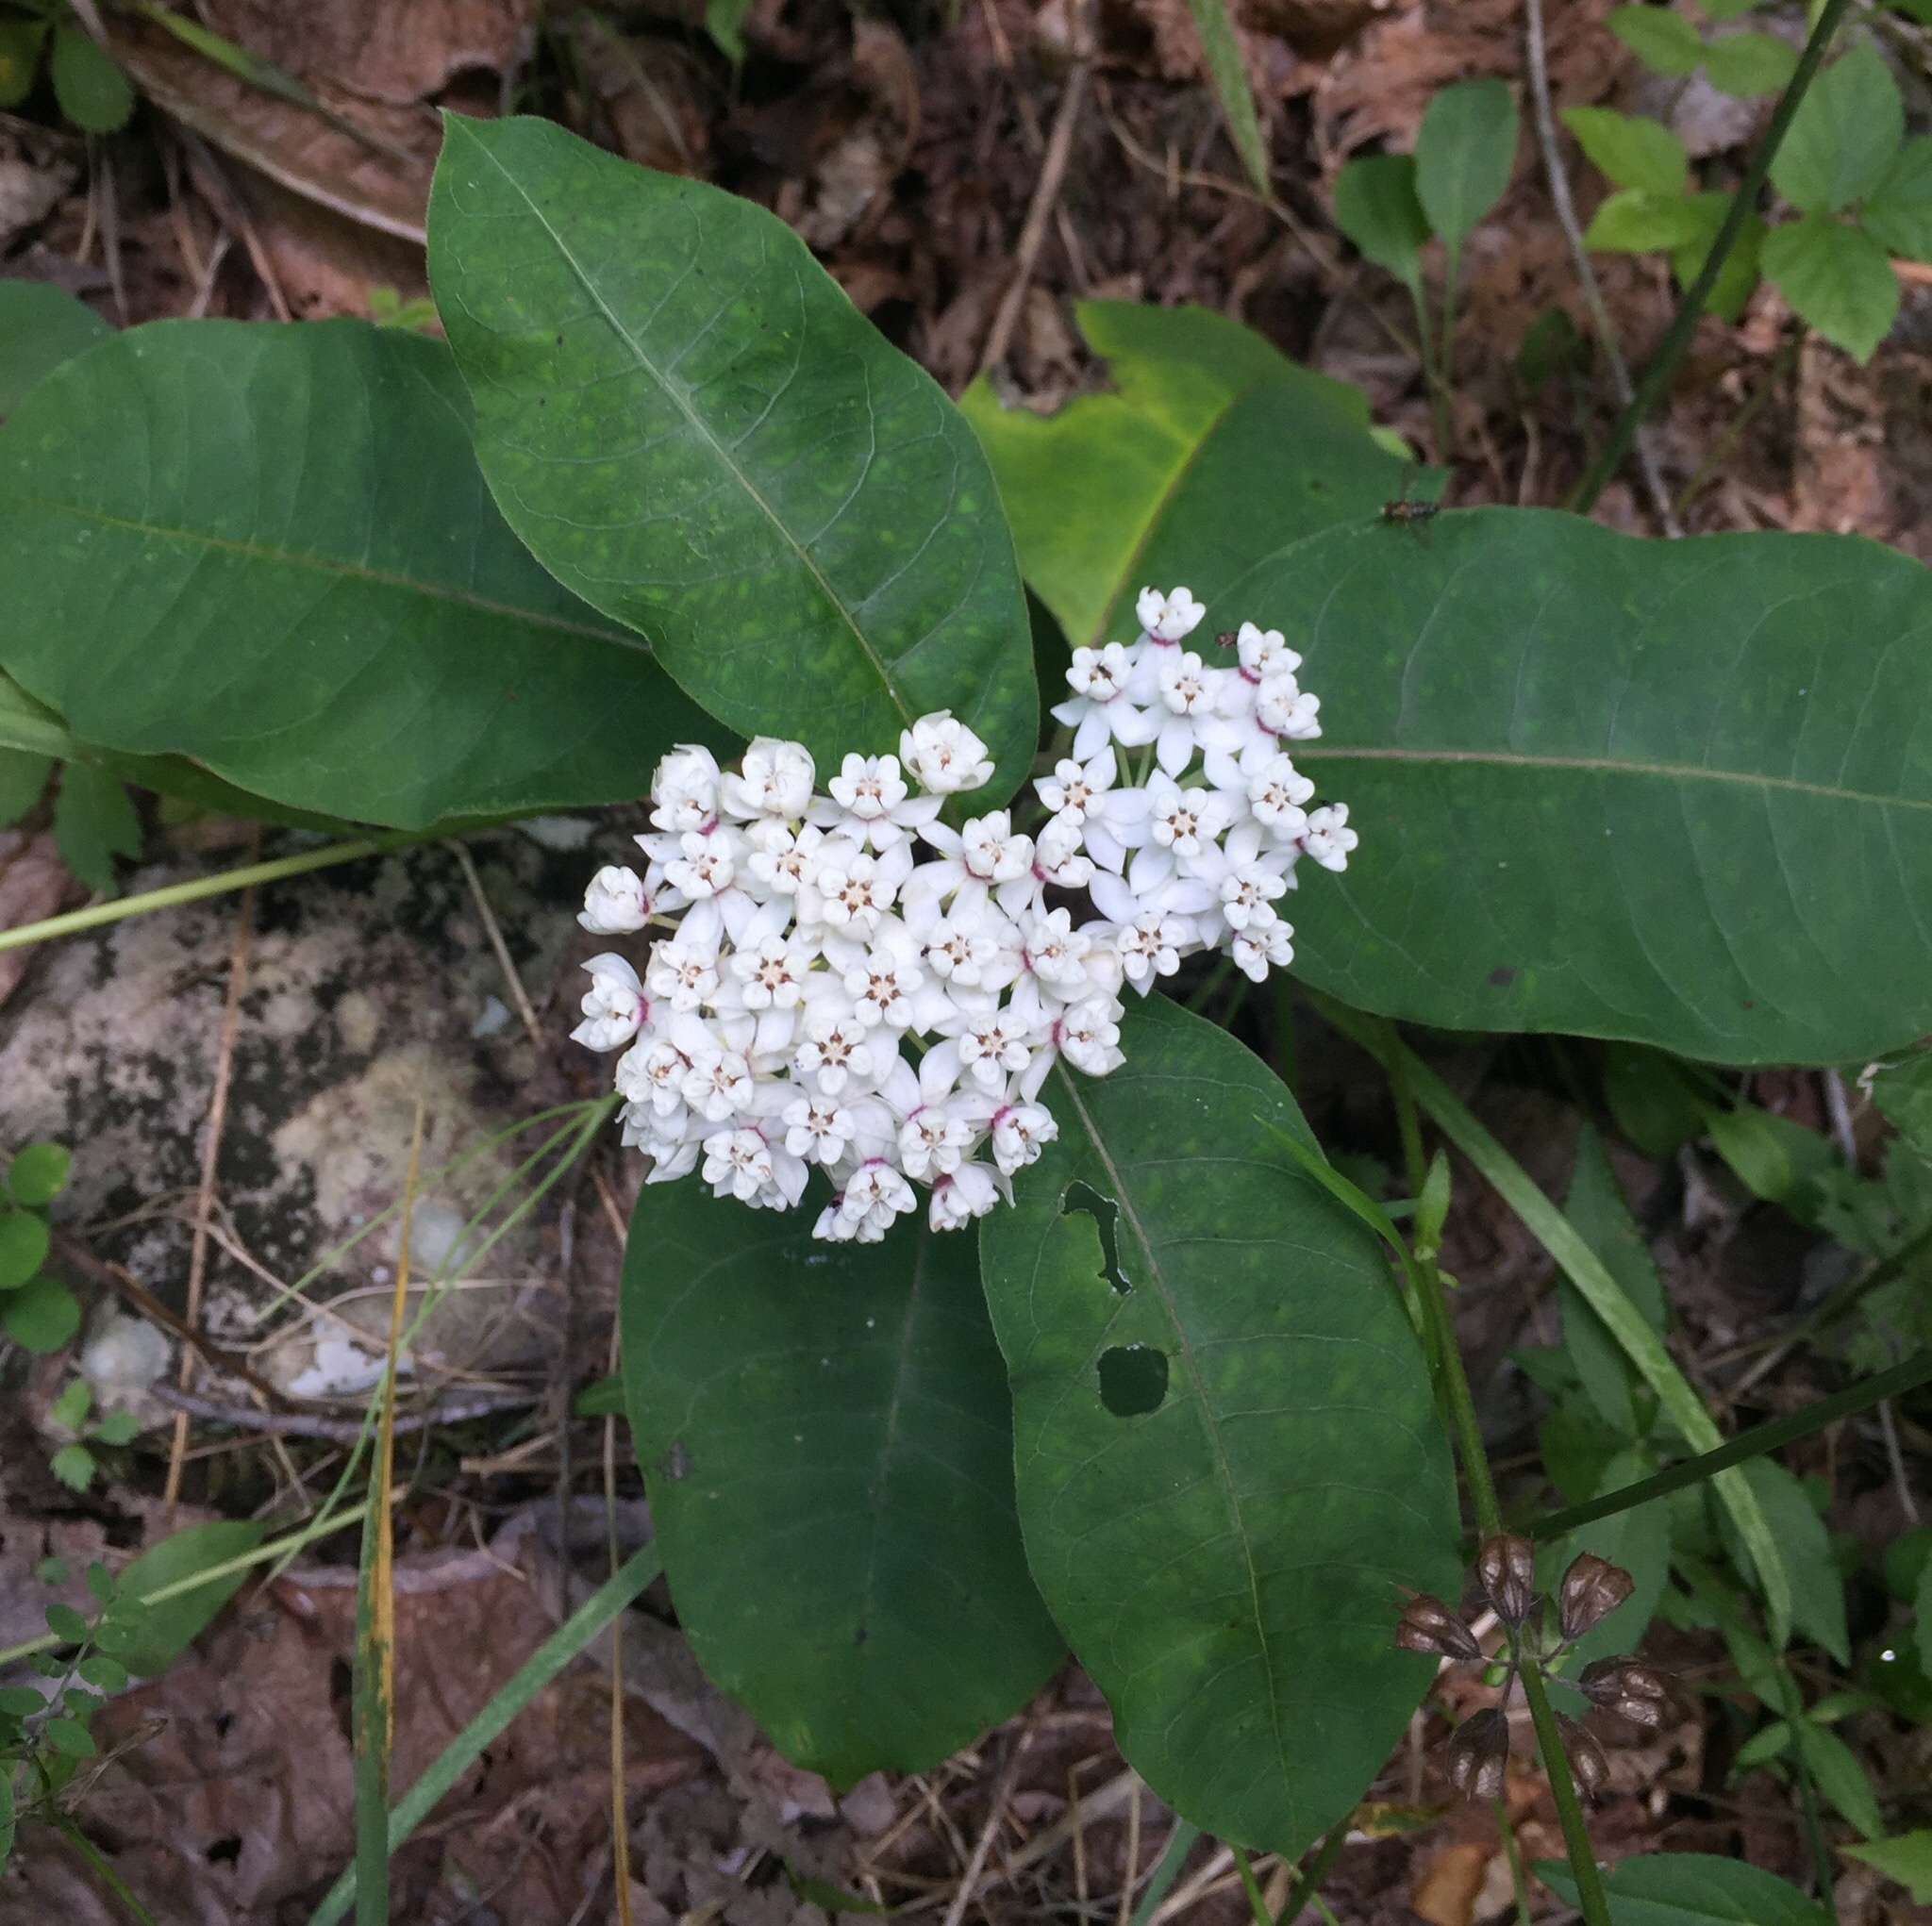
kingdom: Plantae
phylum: Tracheophyta
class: Magnoliopsida
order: Gentianales
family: Apocynaceae
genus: Asclepias
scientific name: Asclepias variegata
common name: Variegated milkweed
